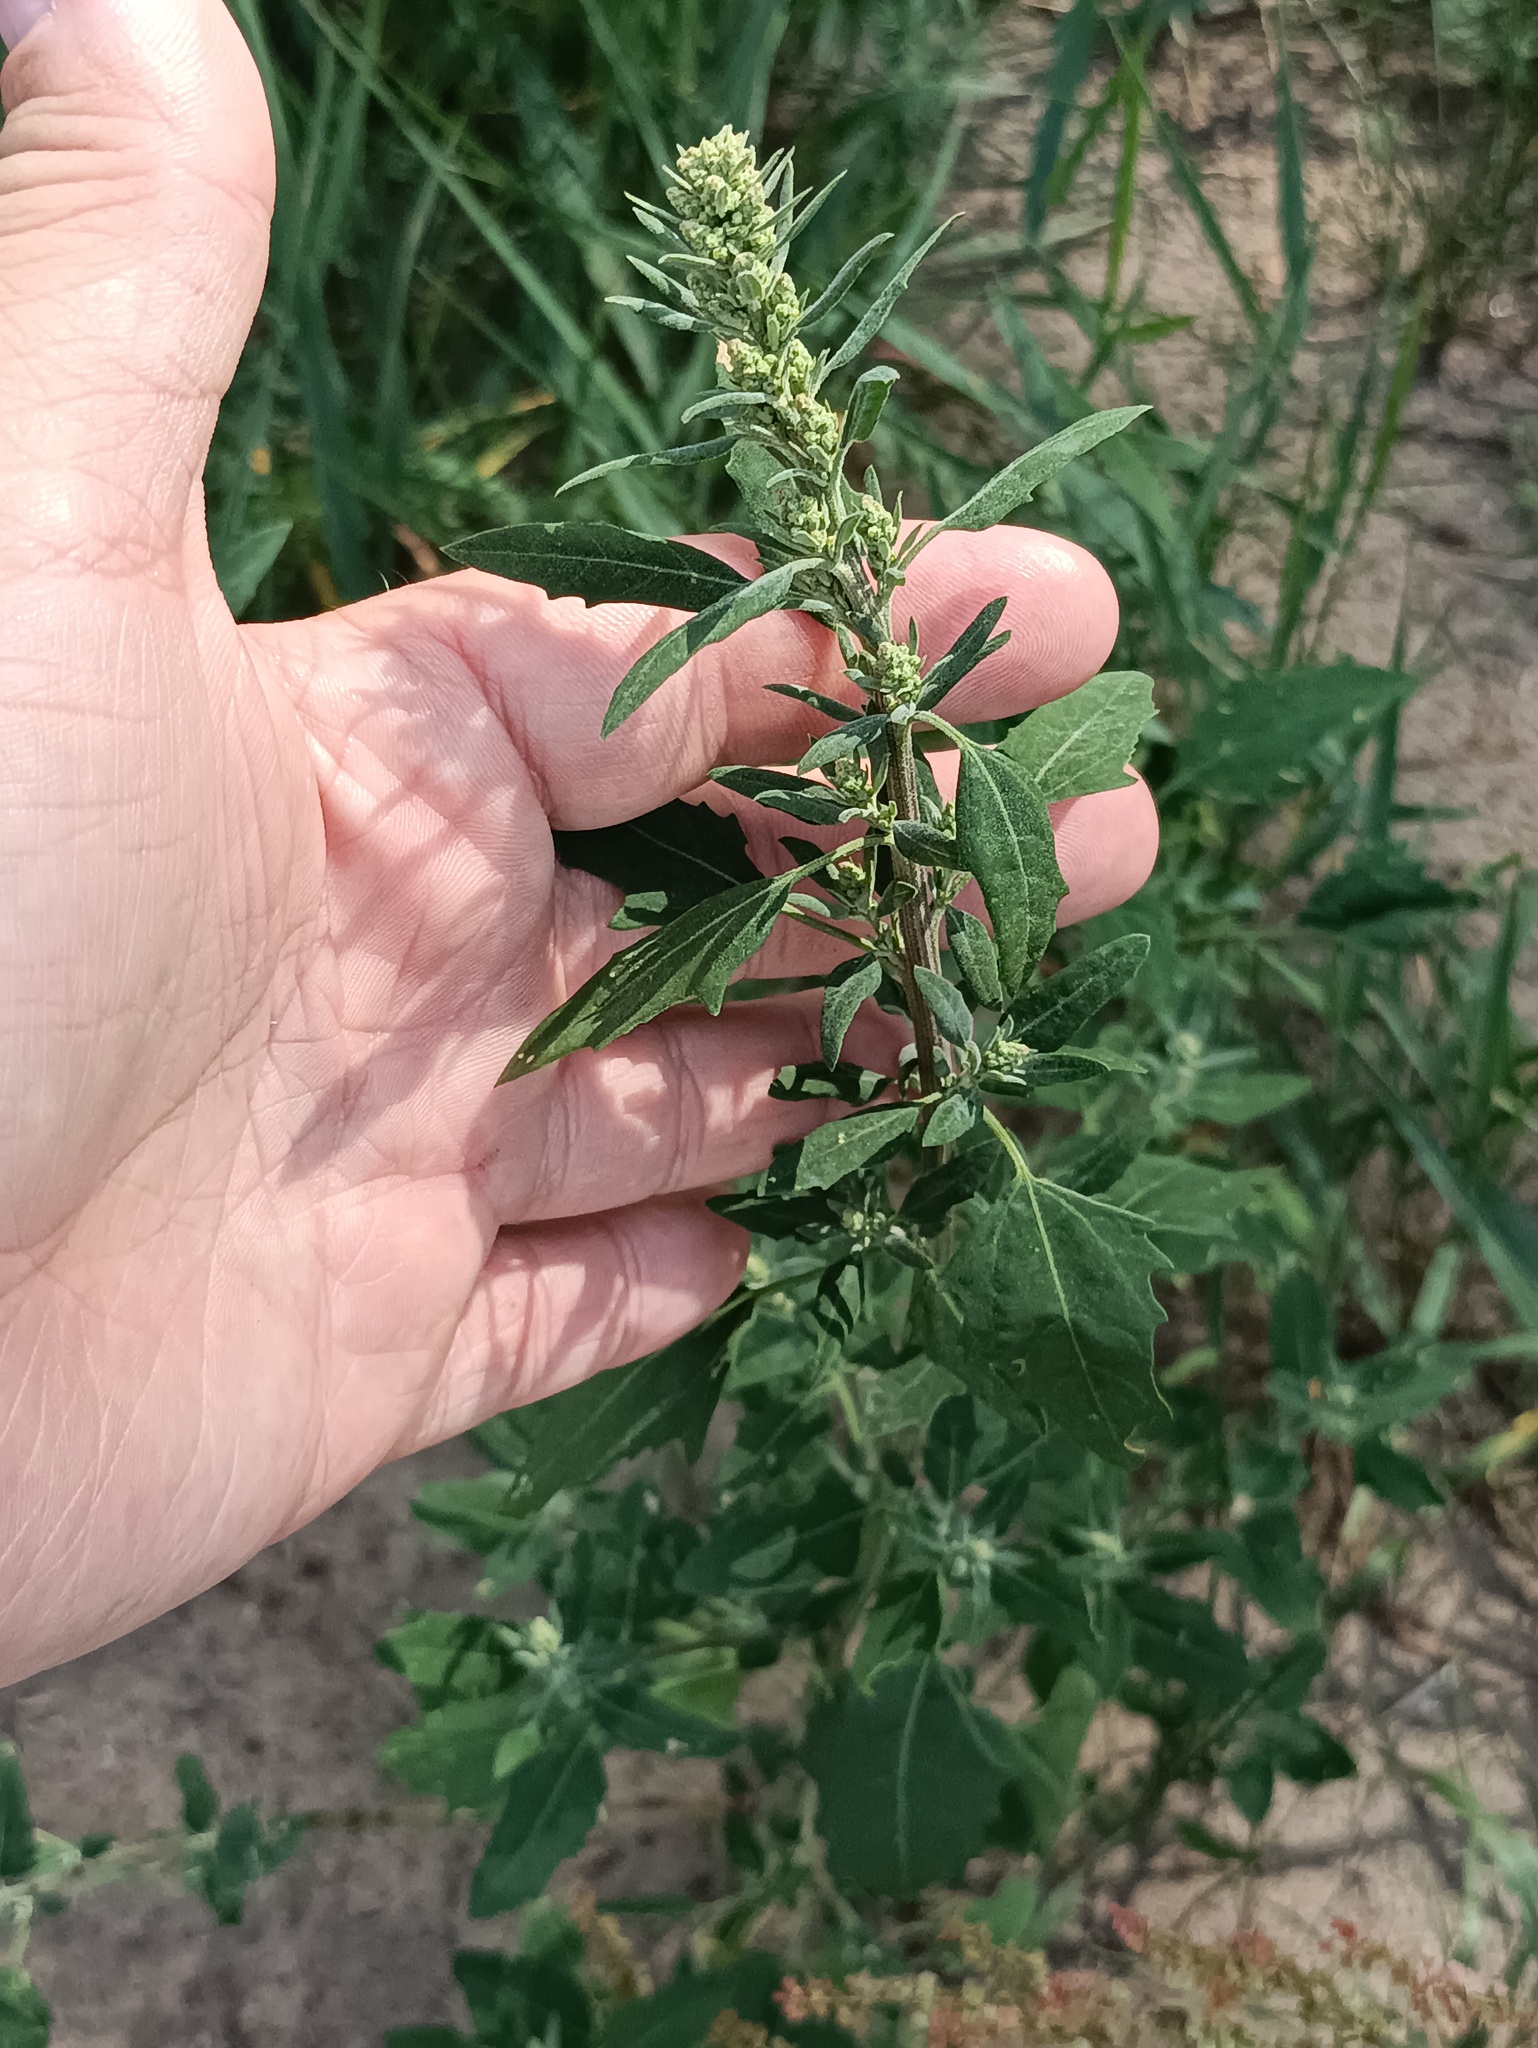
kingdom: Plantae
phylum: Tracheophyta
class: Magnoliopsida
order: Caryophyllales
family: Amaranthaceae
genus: Chenopodium
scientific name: Chenopodium album
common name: Fat-hen
